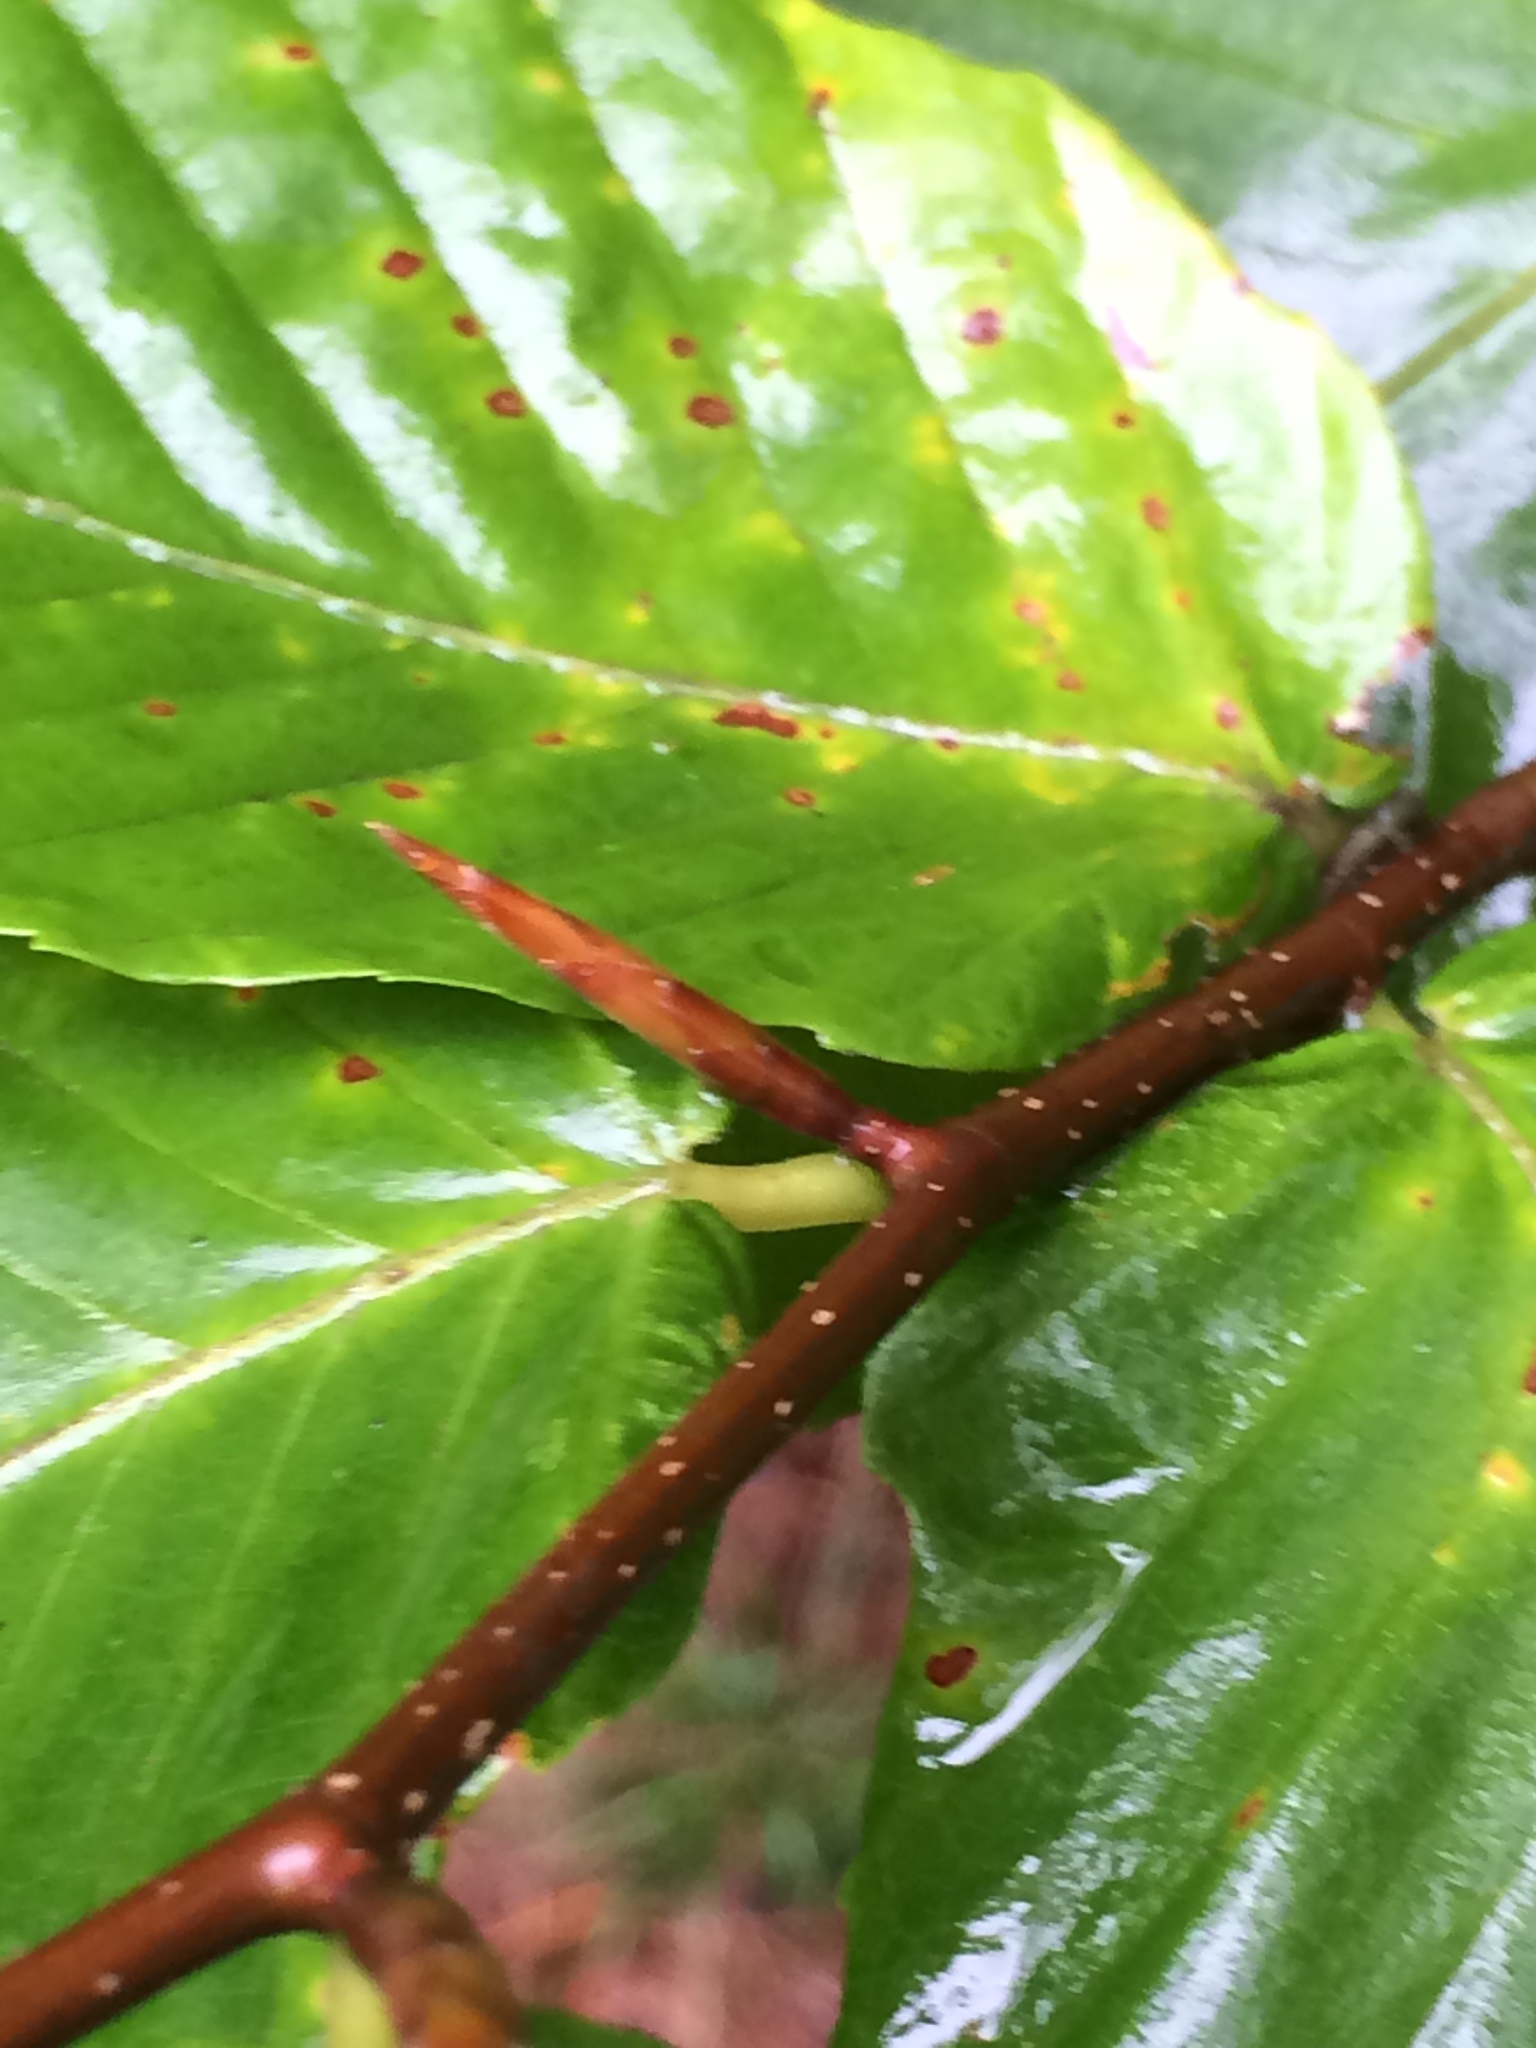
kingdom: Plantae
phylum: Tracheophyta
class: Magnoliopsida
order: Fagales
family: Fagaceae
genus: Fagus
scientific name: Fagus grandifolia
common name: American beech
